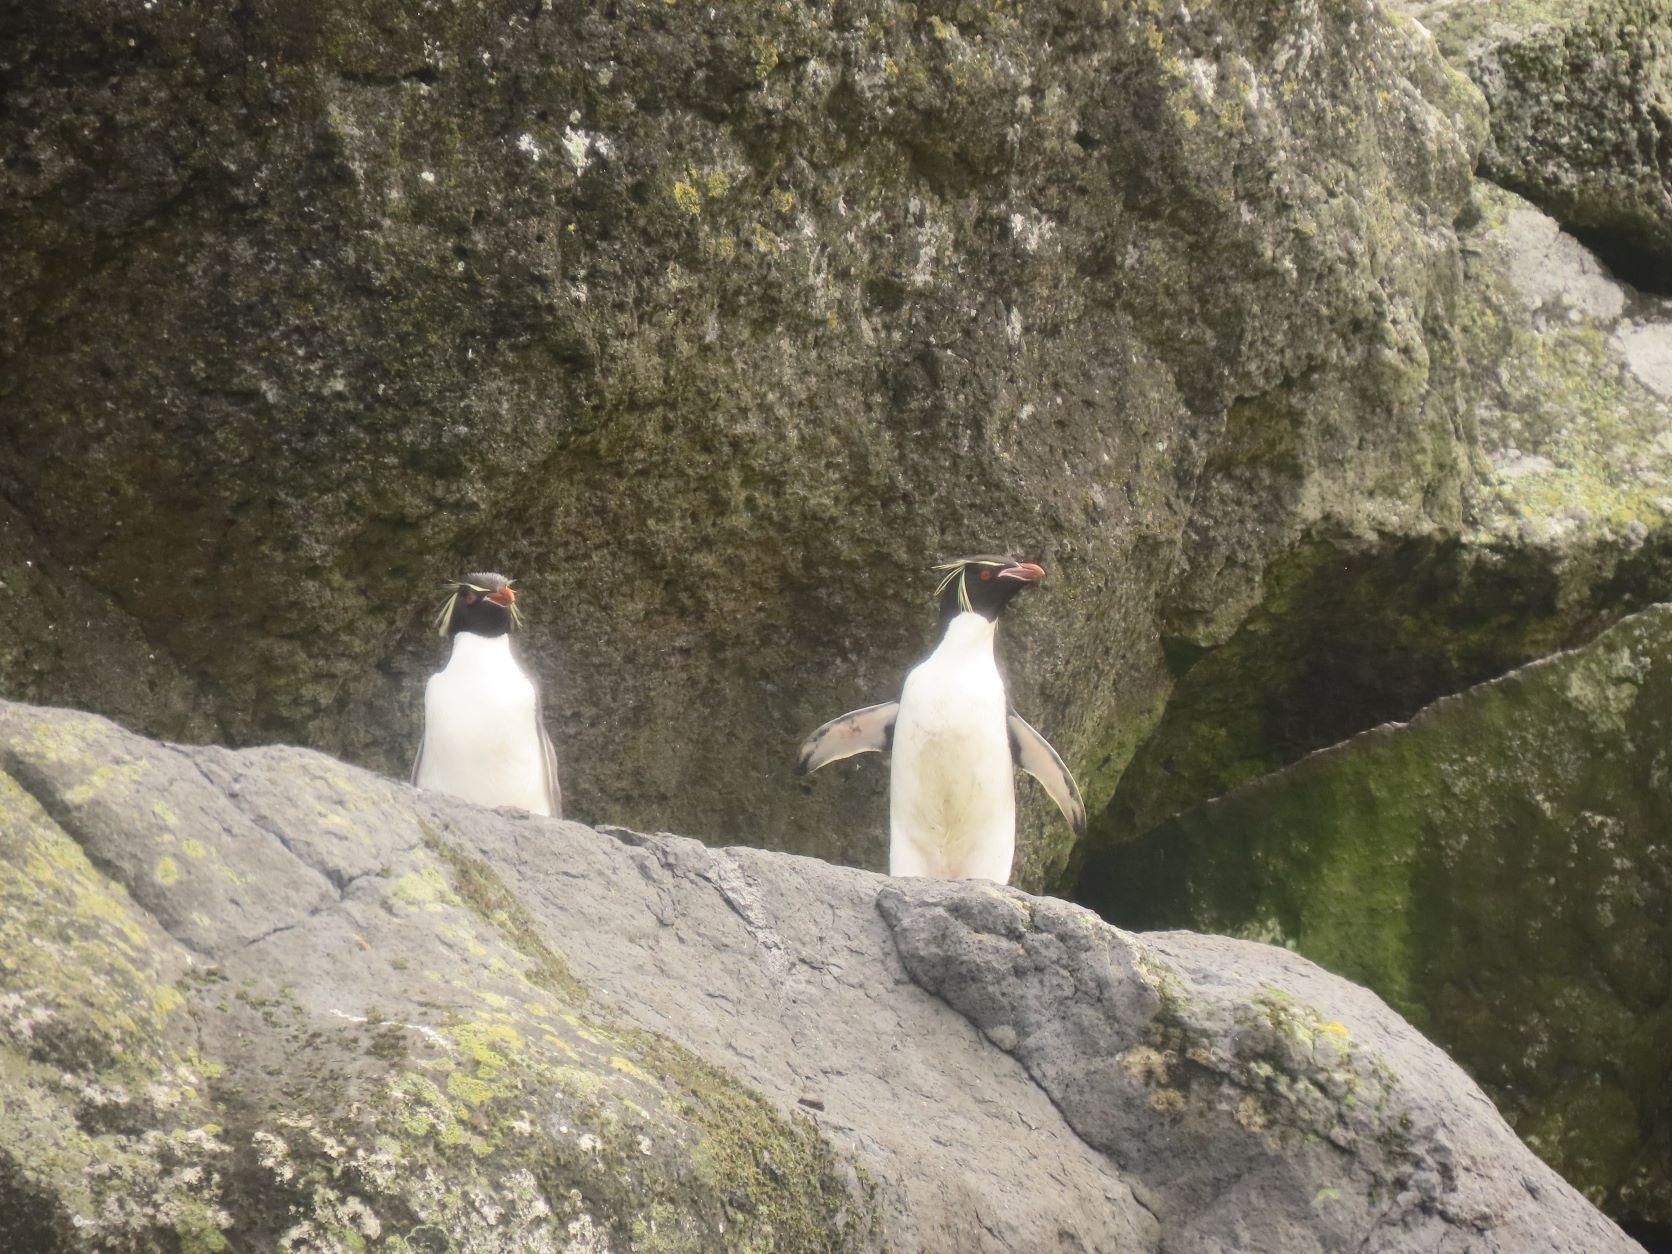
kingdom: Animalia
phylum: Chordata
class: Aves
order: Sphenisciformes
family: Spheniscidae
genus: Eudyptes
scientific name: Eudyptes chrysocome
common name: Southern rockhopper penguin
